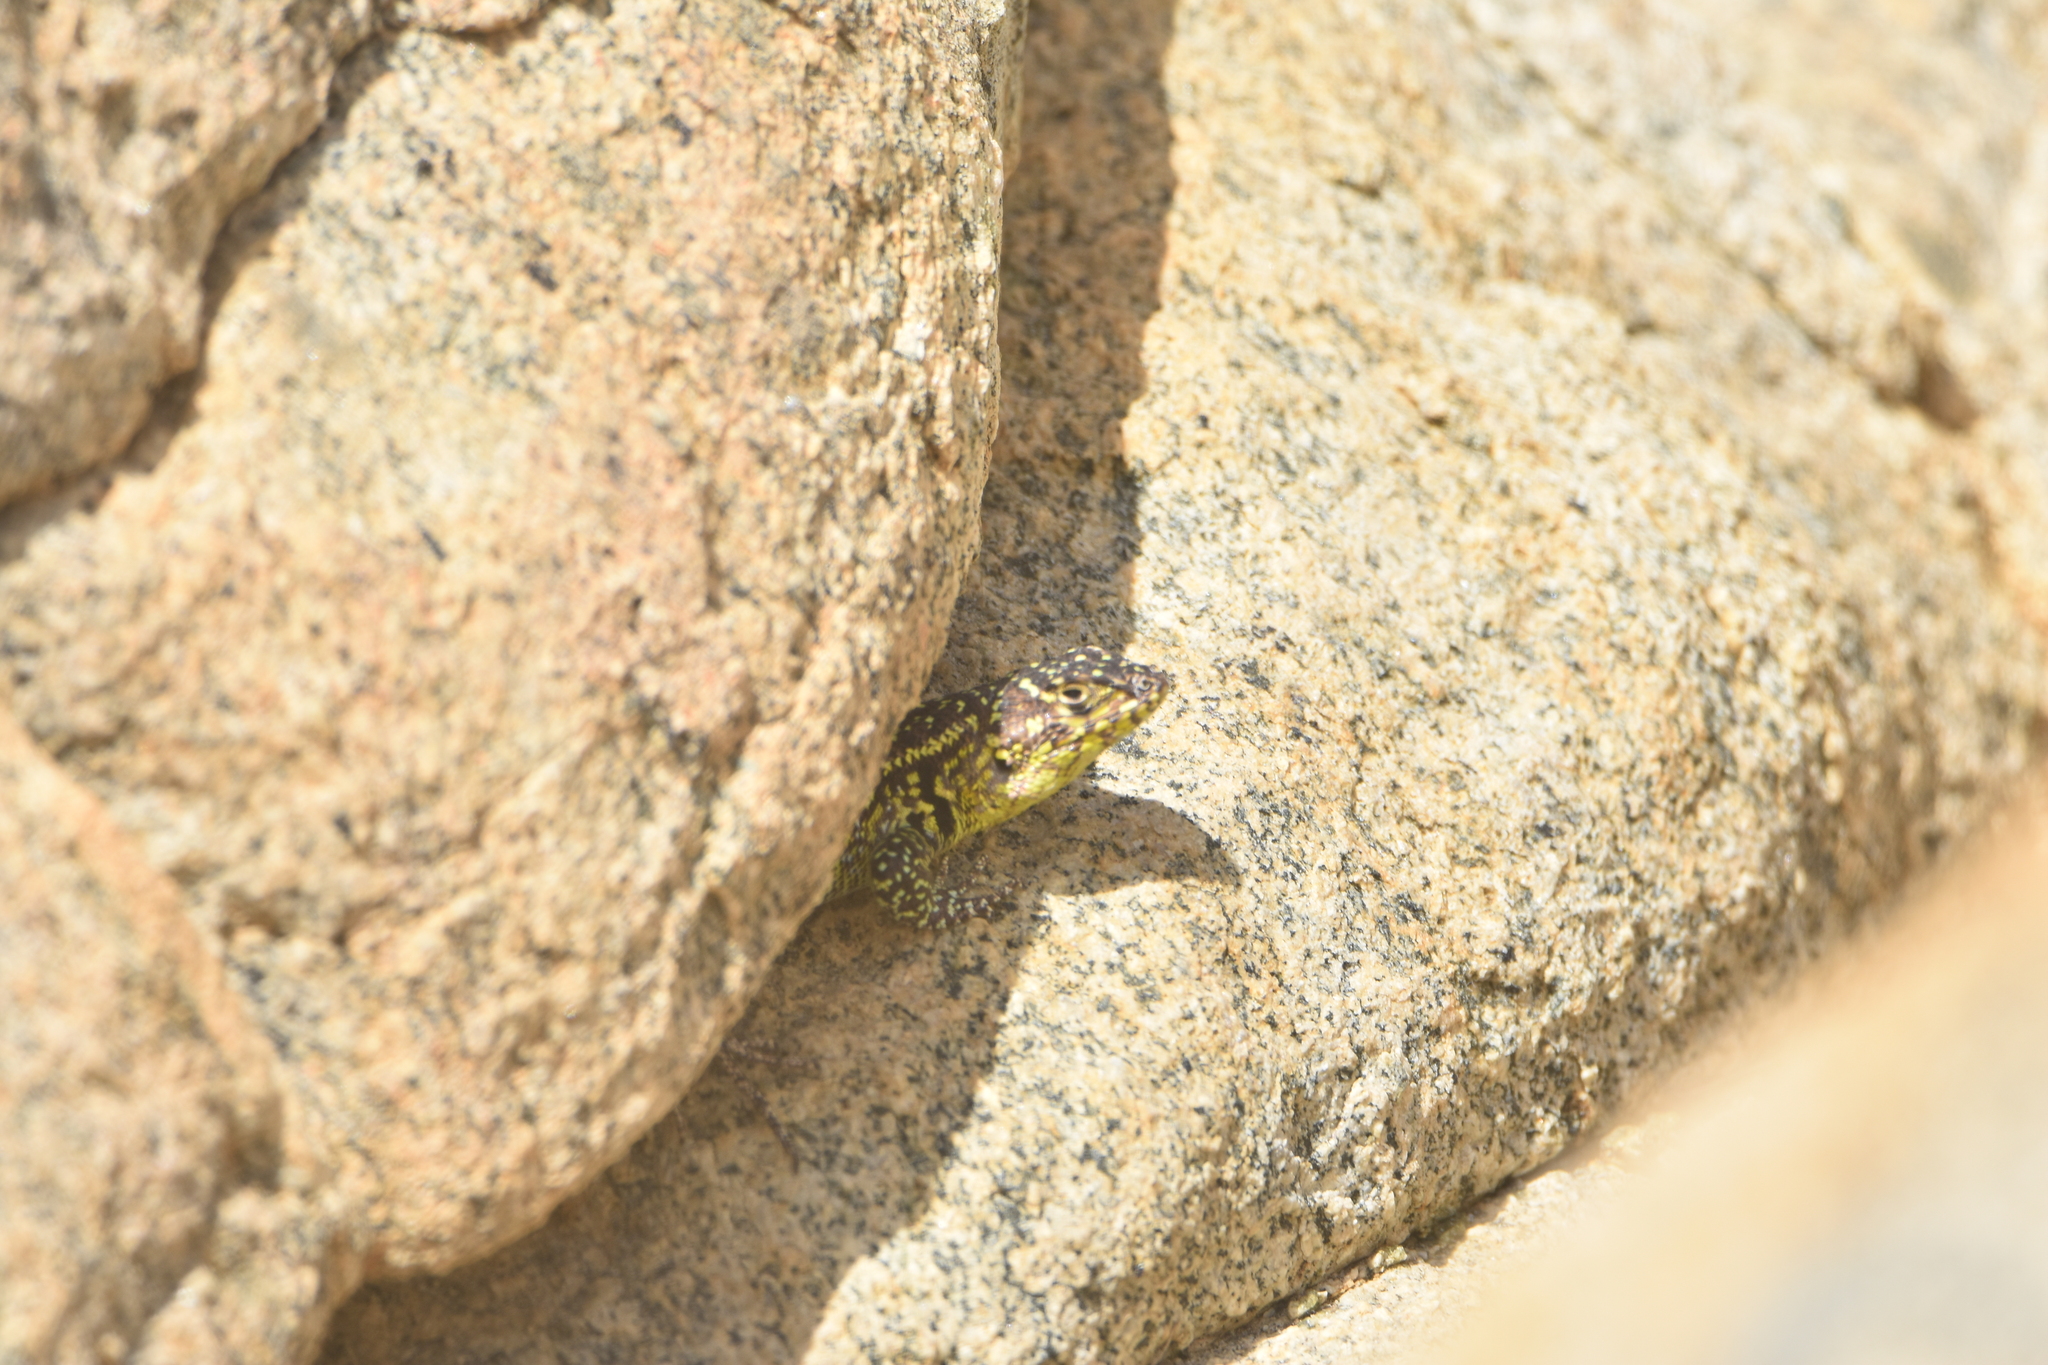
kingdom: Animalia
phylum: Chordata
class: Squamata
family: Liolaemidae
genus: Liolaemus
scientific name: Liolaemus zapallarensis
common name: Zapallaren tree iguana
